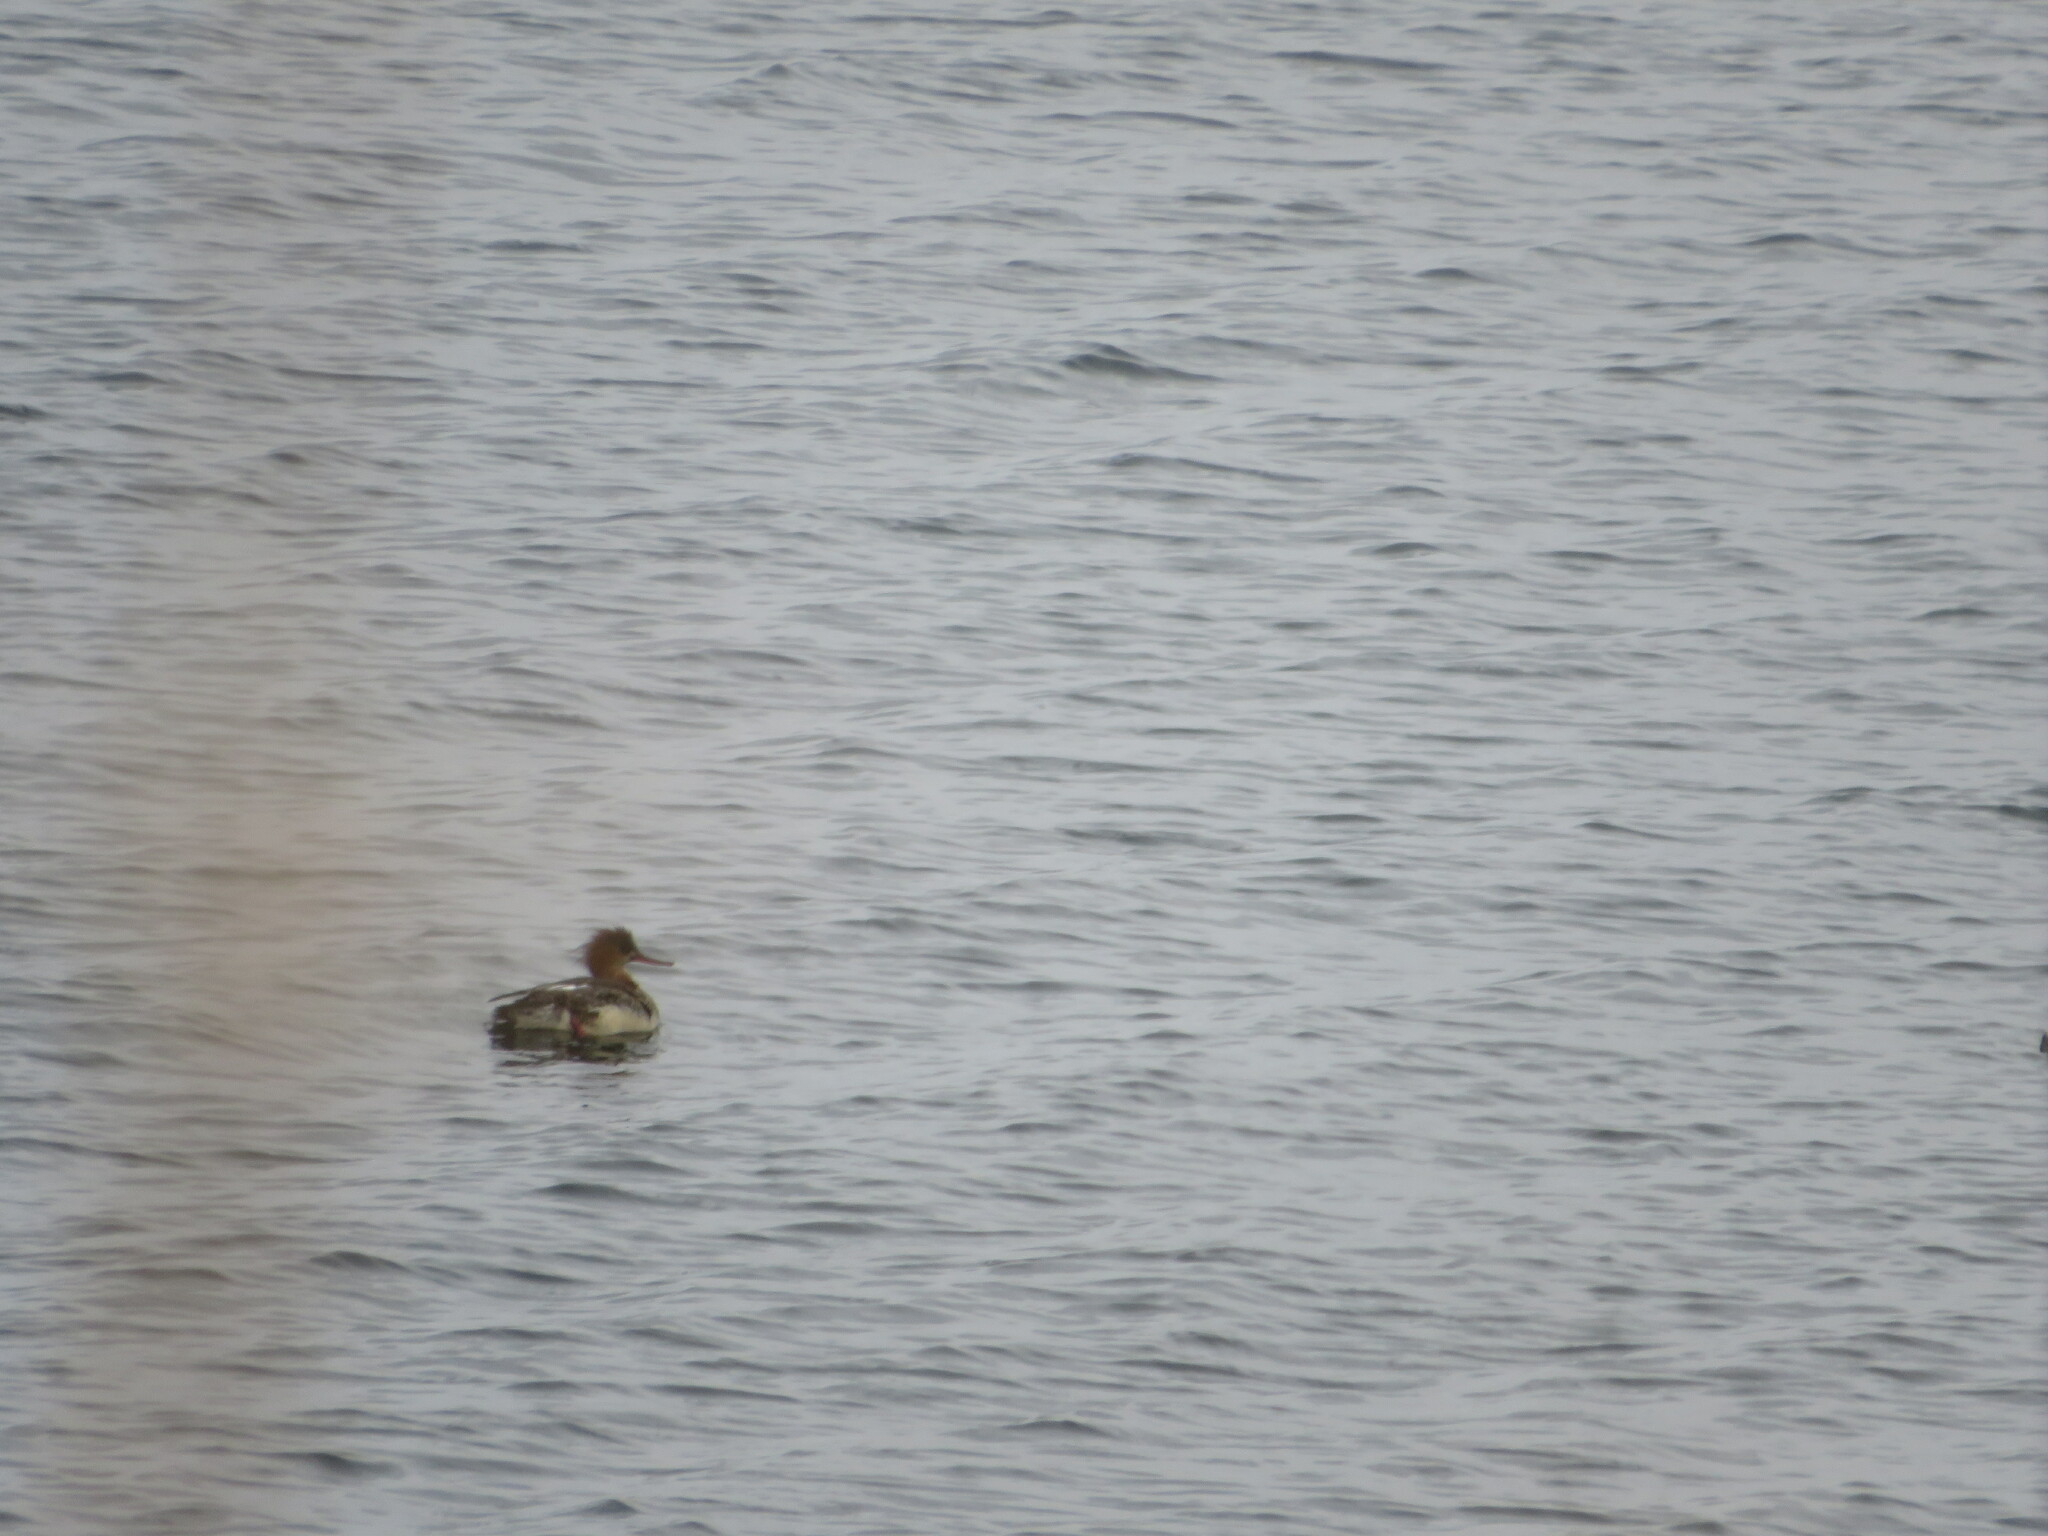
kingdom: Animalia
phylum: Chordata
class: Aves
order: Anseriformes
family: Anatidae
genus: Mergus
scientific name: Mergus serrator
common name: Red-breasted merganser
